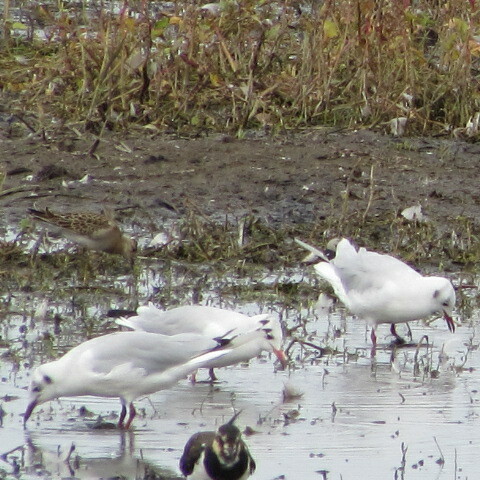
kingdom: Animalia
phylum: Chordata
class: Aves
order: Charadriiformes
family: Laridae
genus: Chroicocephalus
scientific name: Chroicocephalus ridibundus
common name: Black-headed gull
